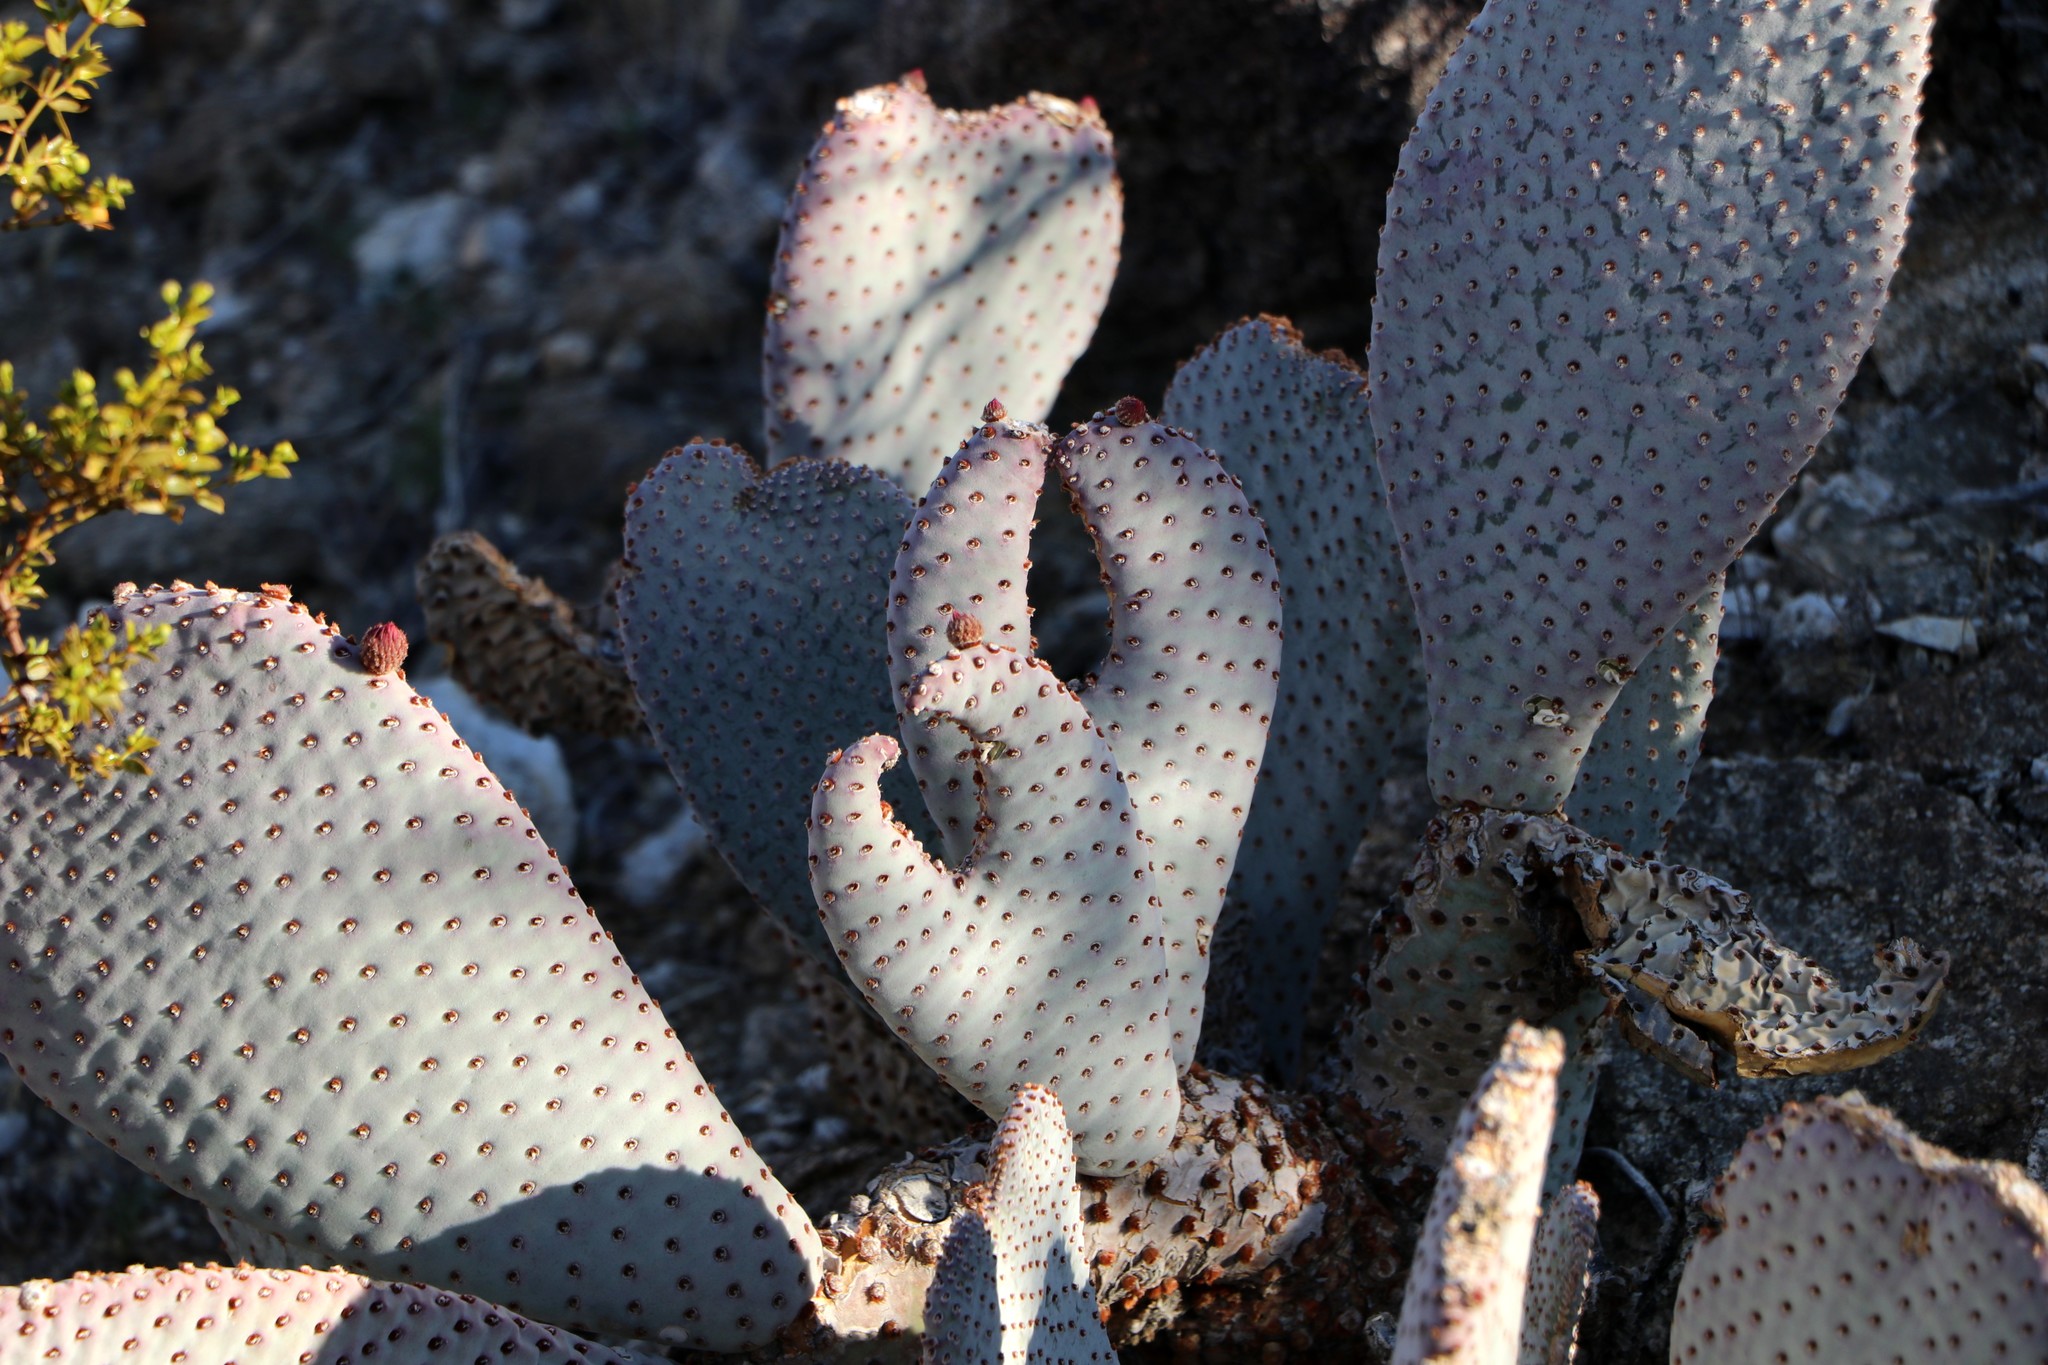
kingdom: Plantae
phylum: Tracheophyta
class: Magnoliopsida
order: Caryophyllales
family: Cactaceae
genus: Opuntia
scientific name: Opuntia basilaris
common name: Beavertail prickly-pear
